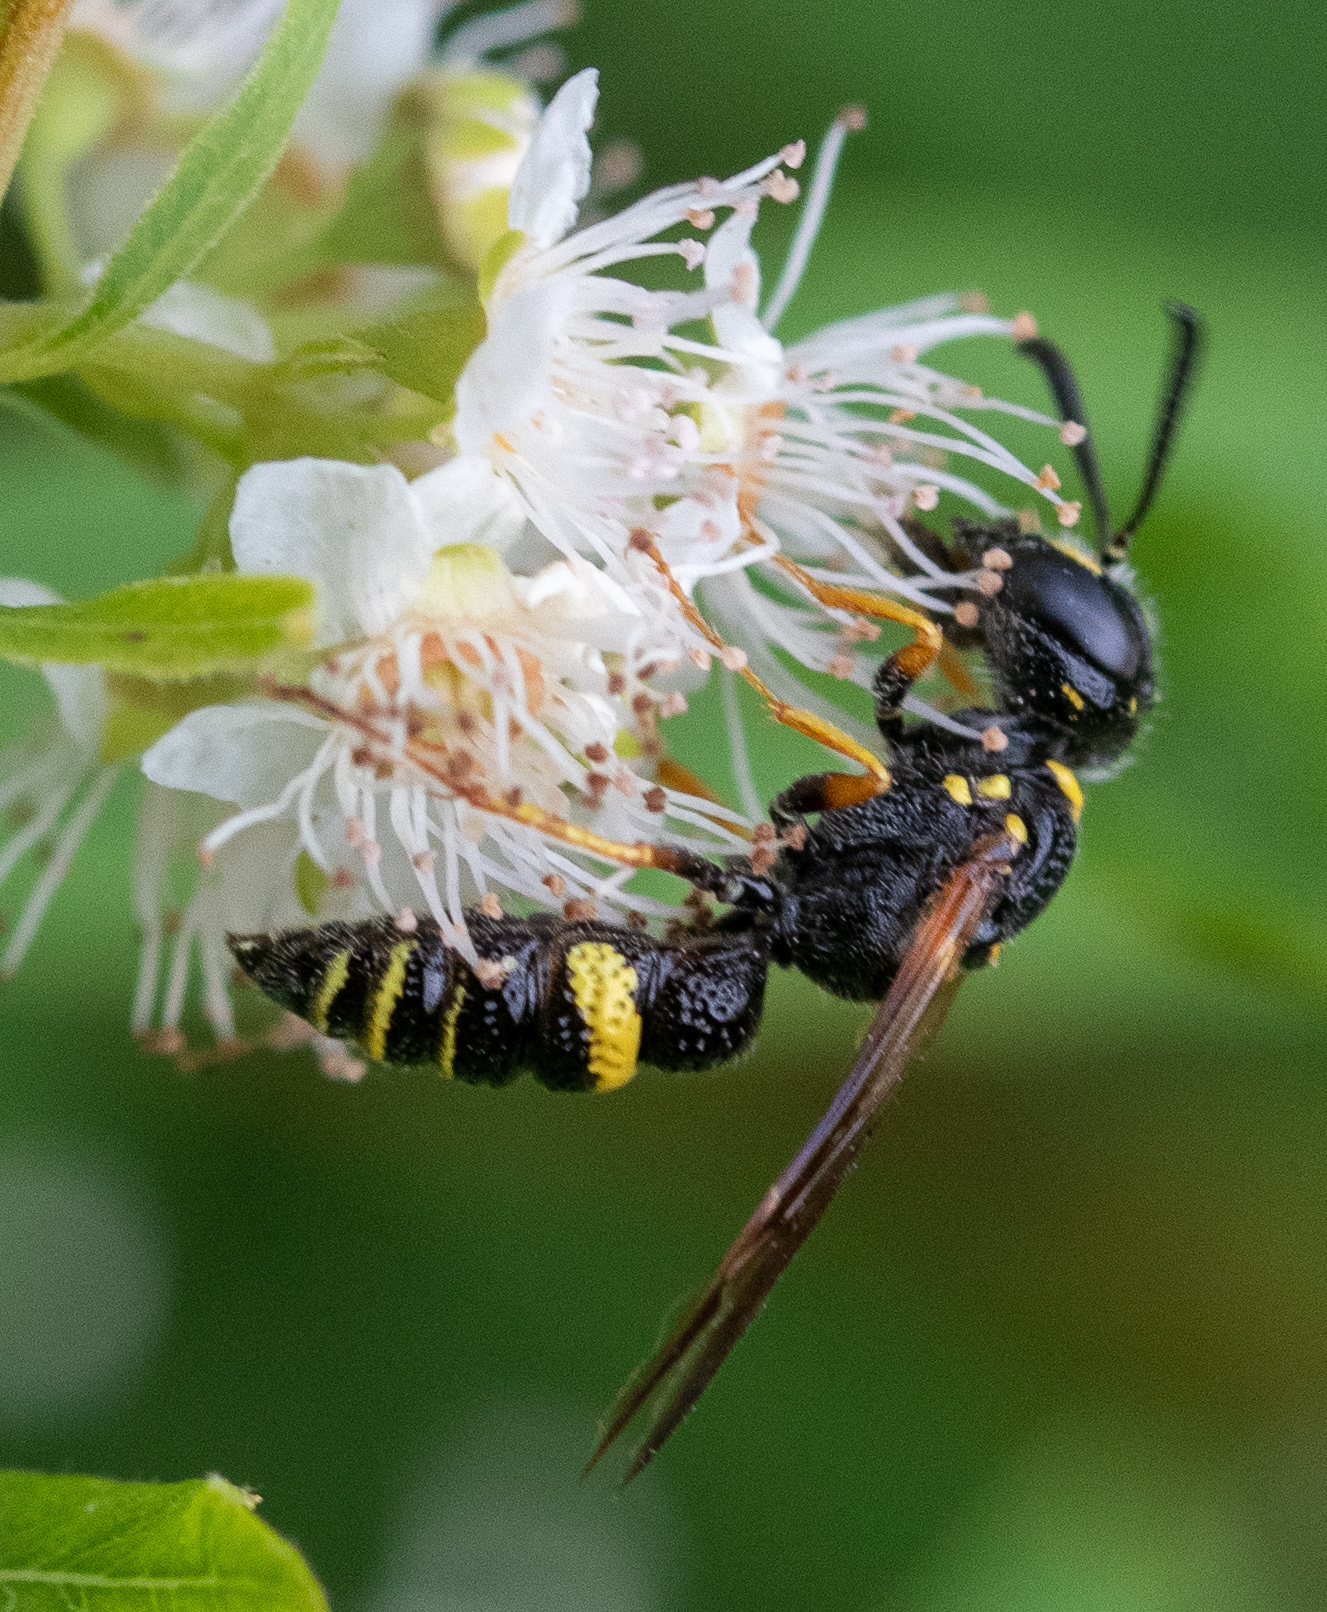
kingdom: Animalia
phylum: Arthropoda
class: Insecta
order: Hymenoptera
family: Crabronidae
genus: Philanthus
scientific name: Philanthus gibbosus
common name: Humped beewolf
